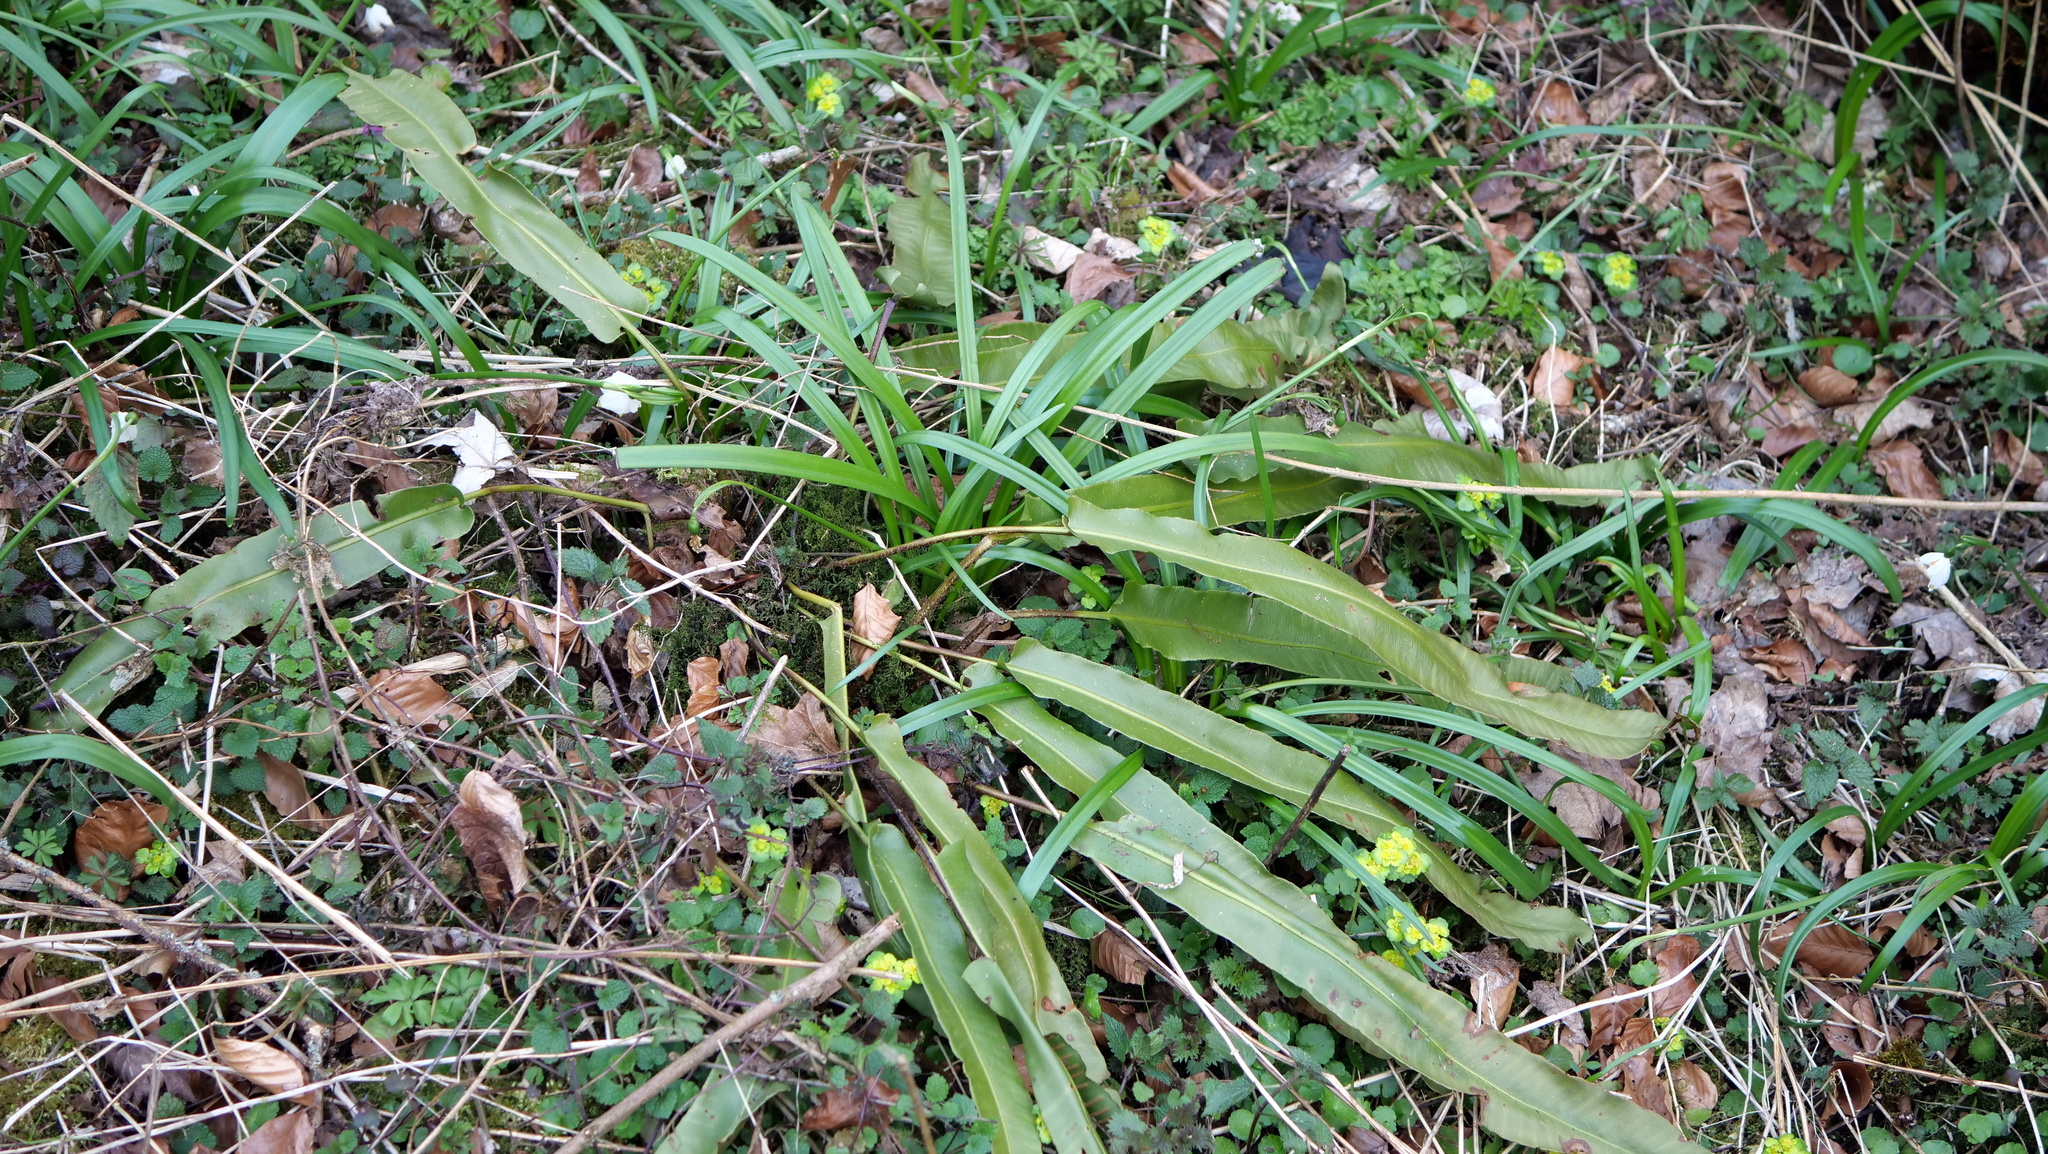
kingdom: Plantae
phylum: Tracheophyta
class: Polypodiopsida
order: Polypodiales
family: Aspleniaceae
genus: Asplenium
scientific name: Asplenium scolopendrium
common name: Hart's-tongue fern
